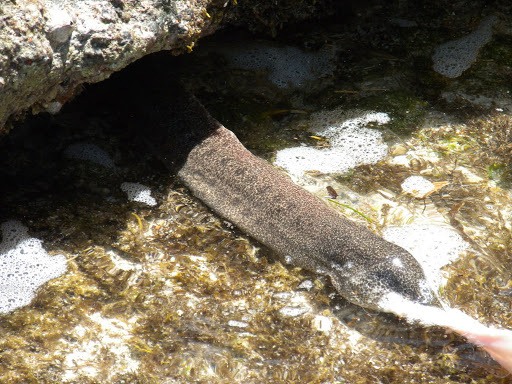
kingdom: Animalia
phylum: Chordata
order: Anguilliformes
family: Muraenidae
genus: Gymnothorax
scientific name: Gymnothorax pictus
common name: Peppered moray
